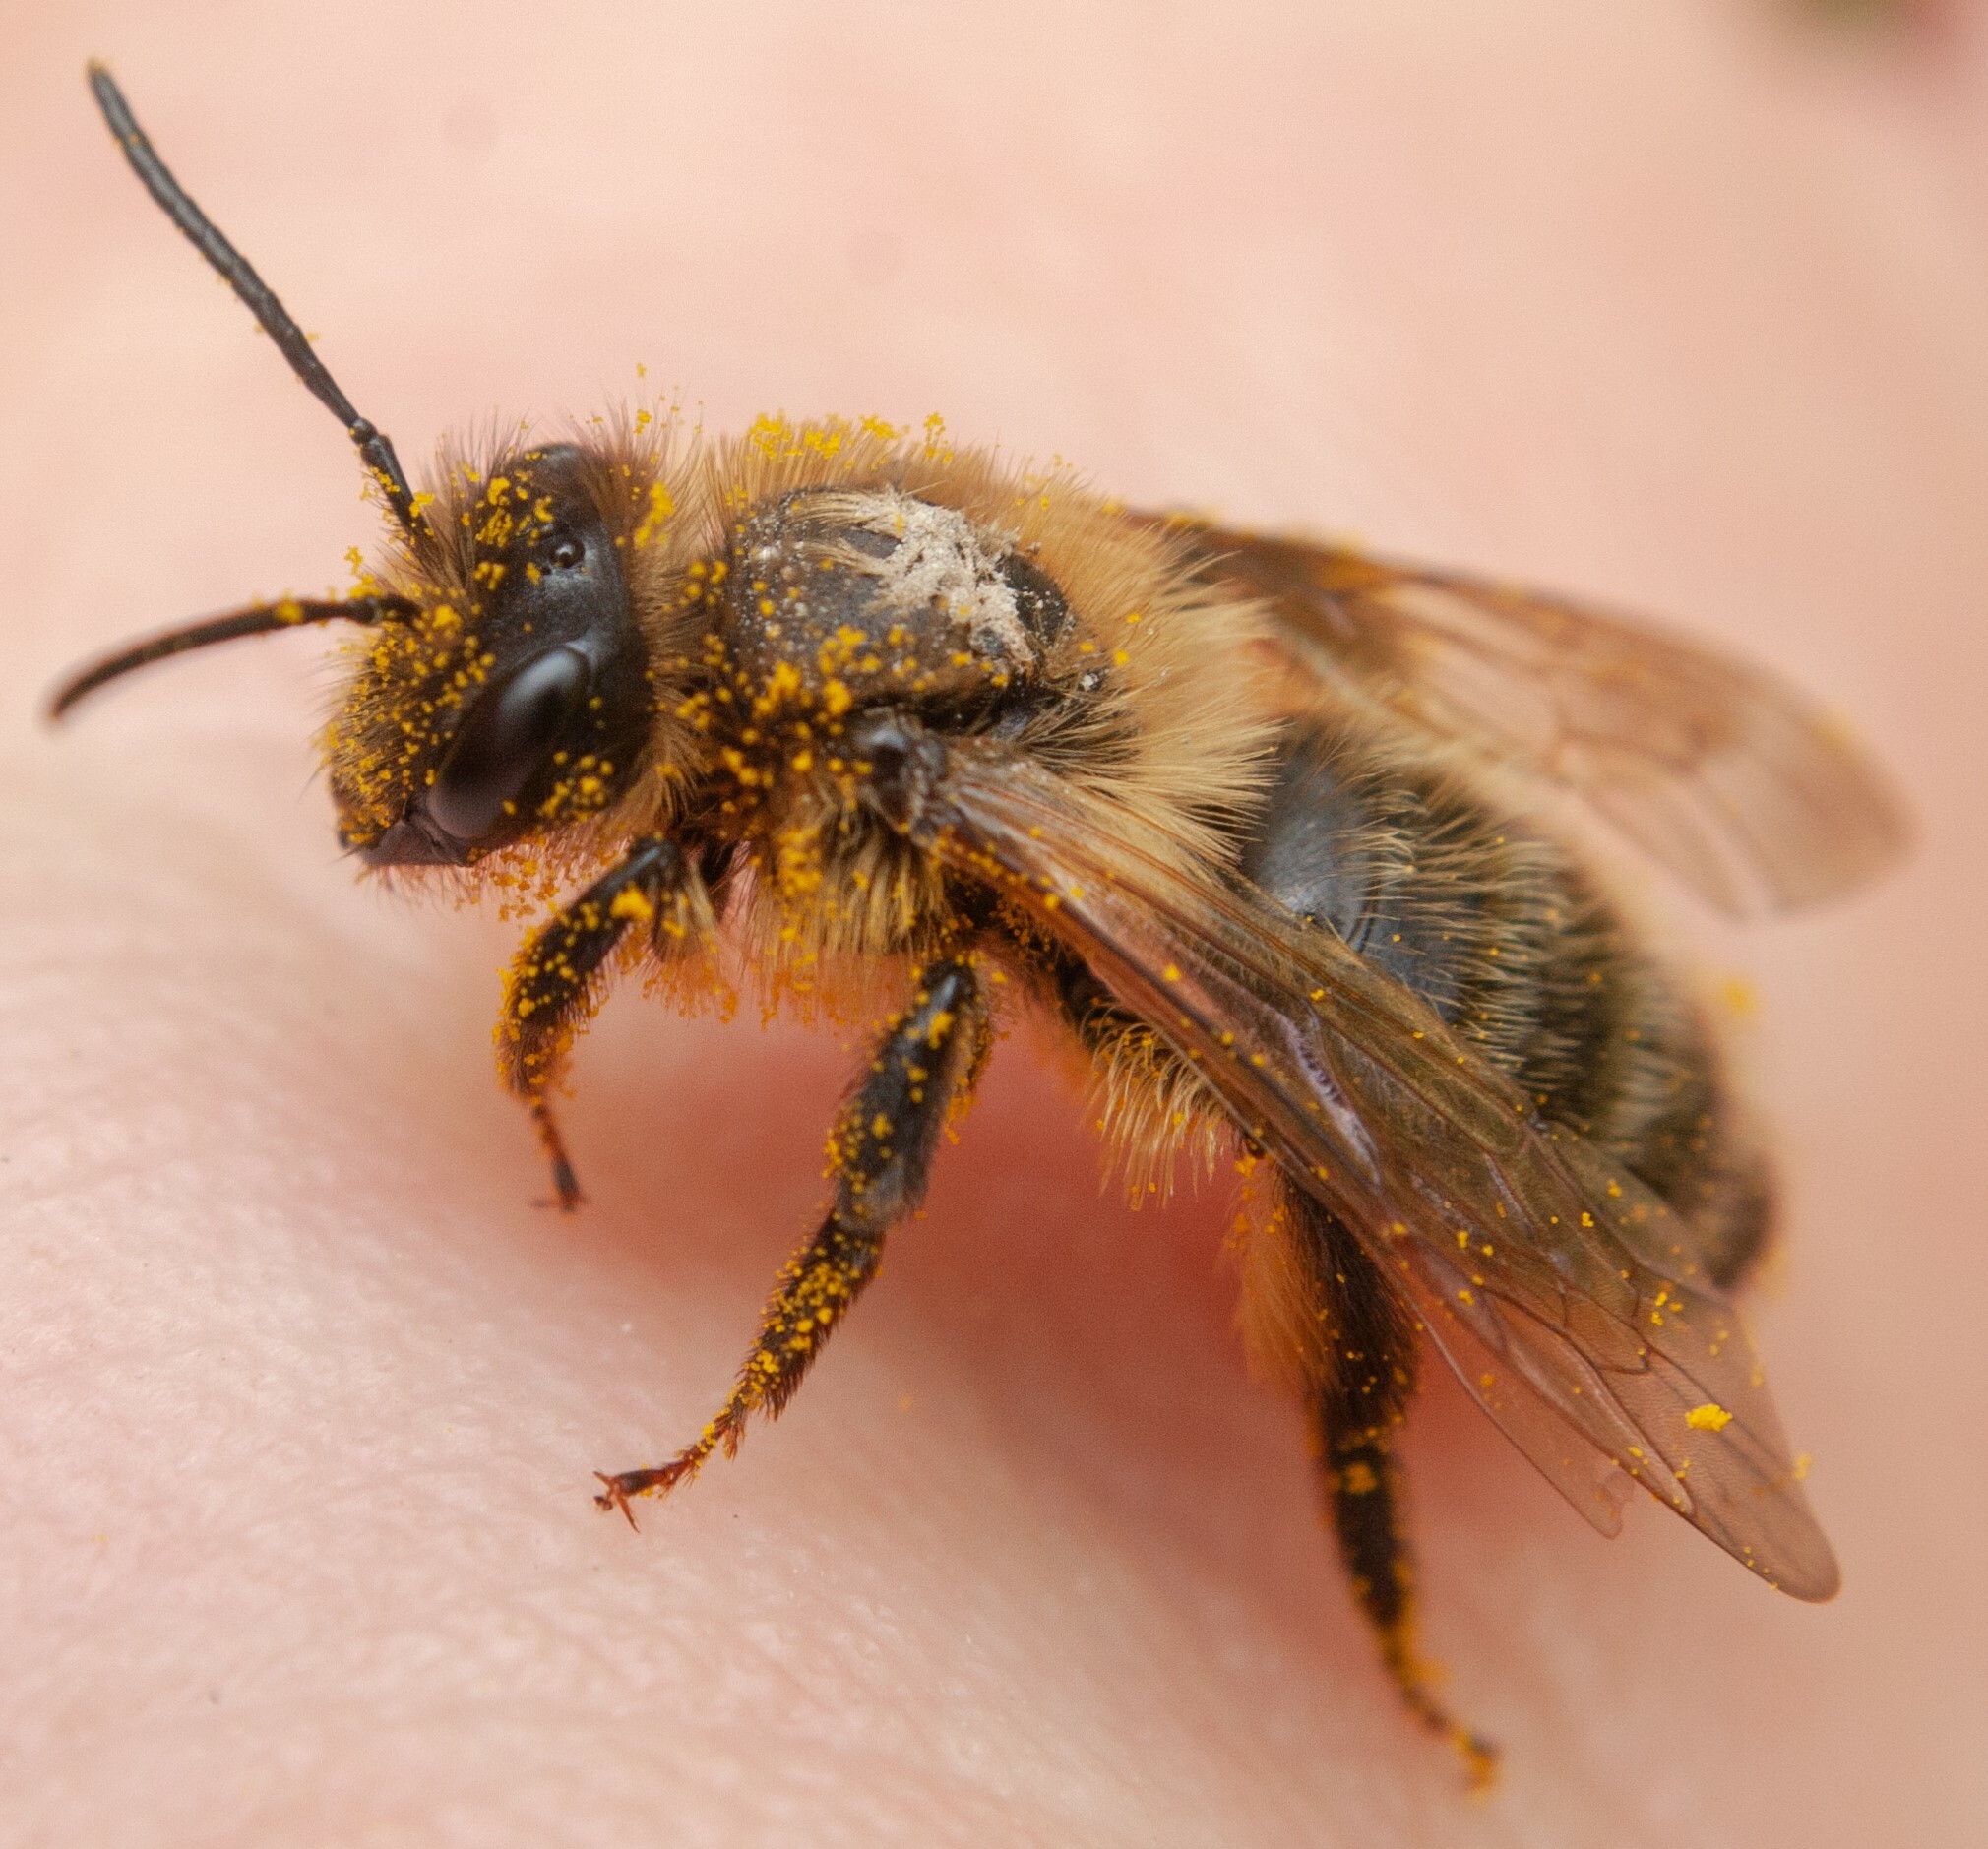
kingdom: Animalia
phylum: Arthropoda
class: Insecta
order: Hymenoptera
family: Andrenidae
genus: Andrena
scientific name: Andrena carantonica
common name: Chocolate mining bee
